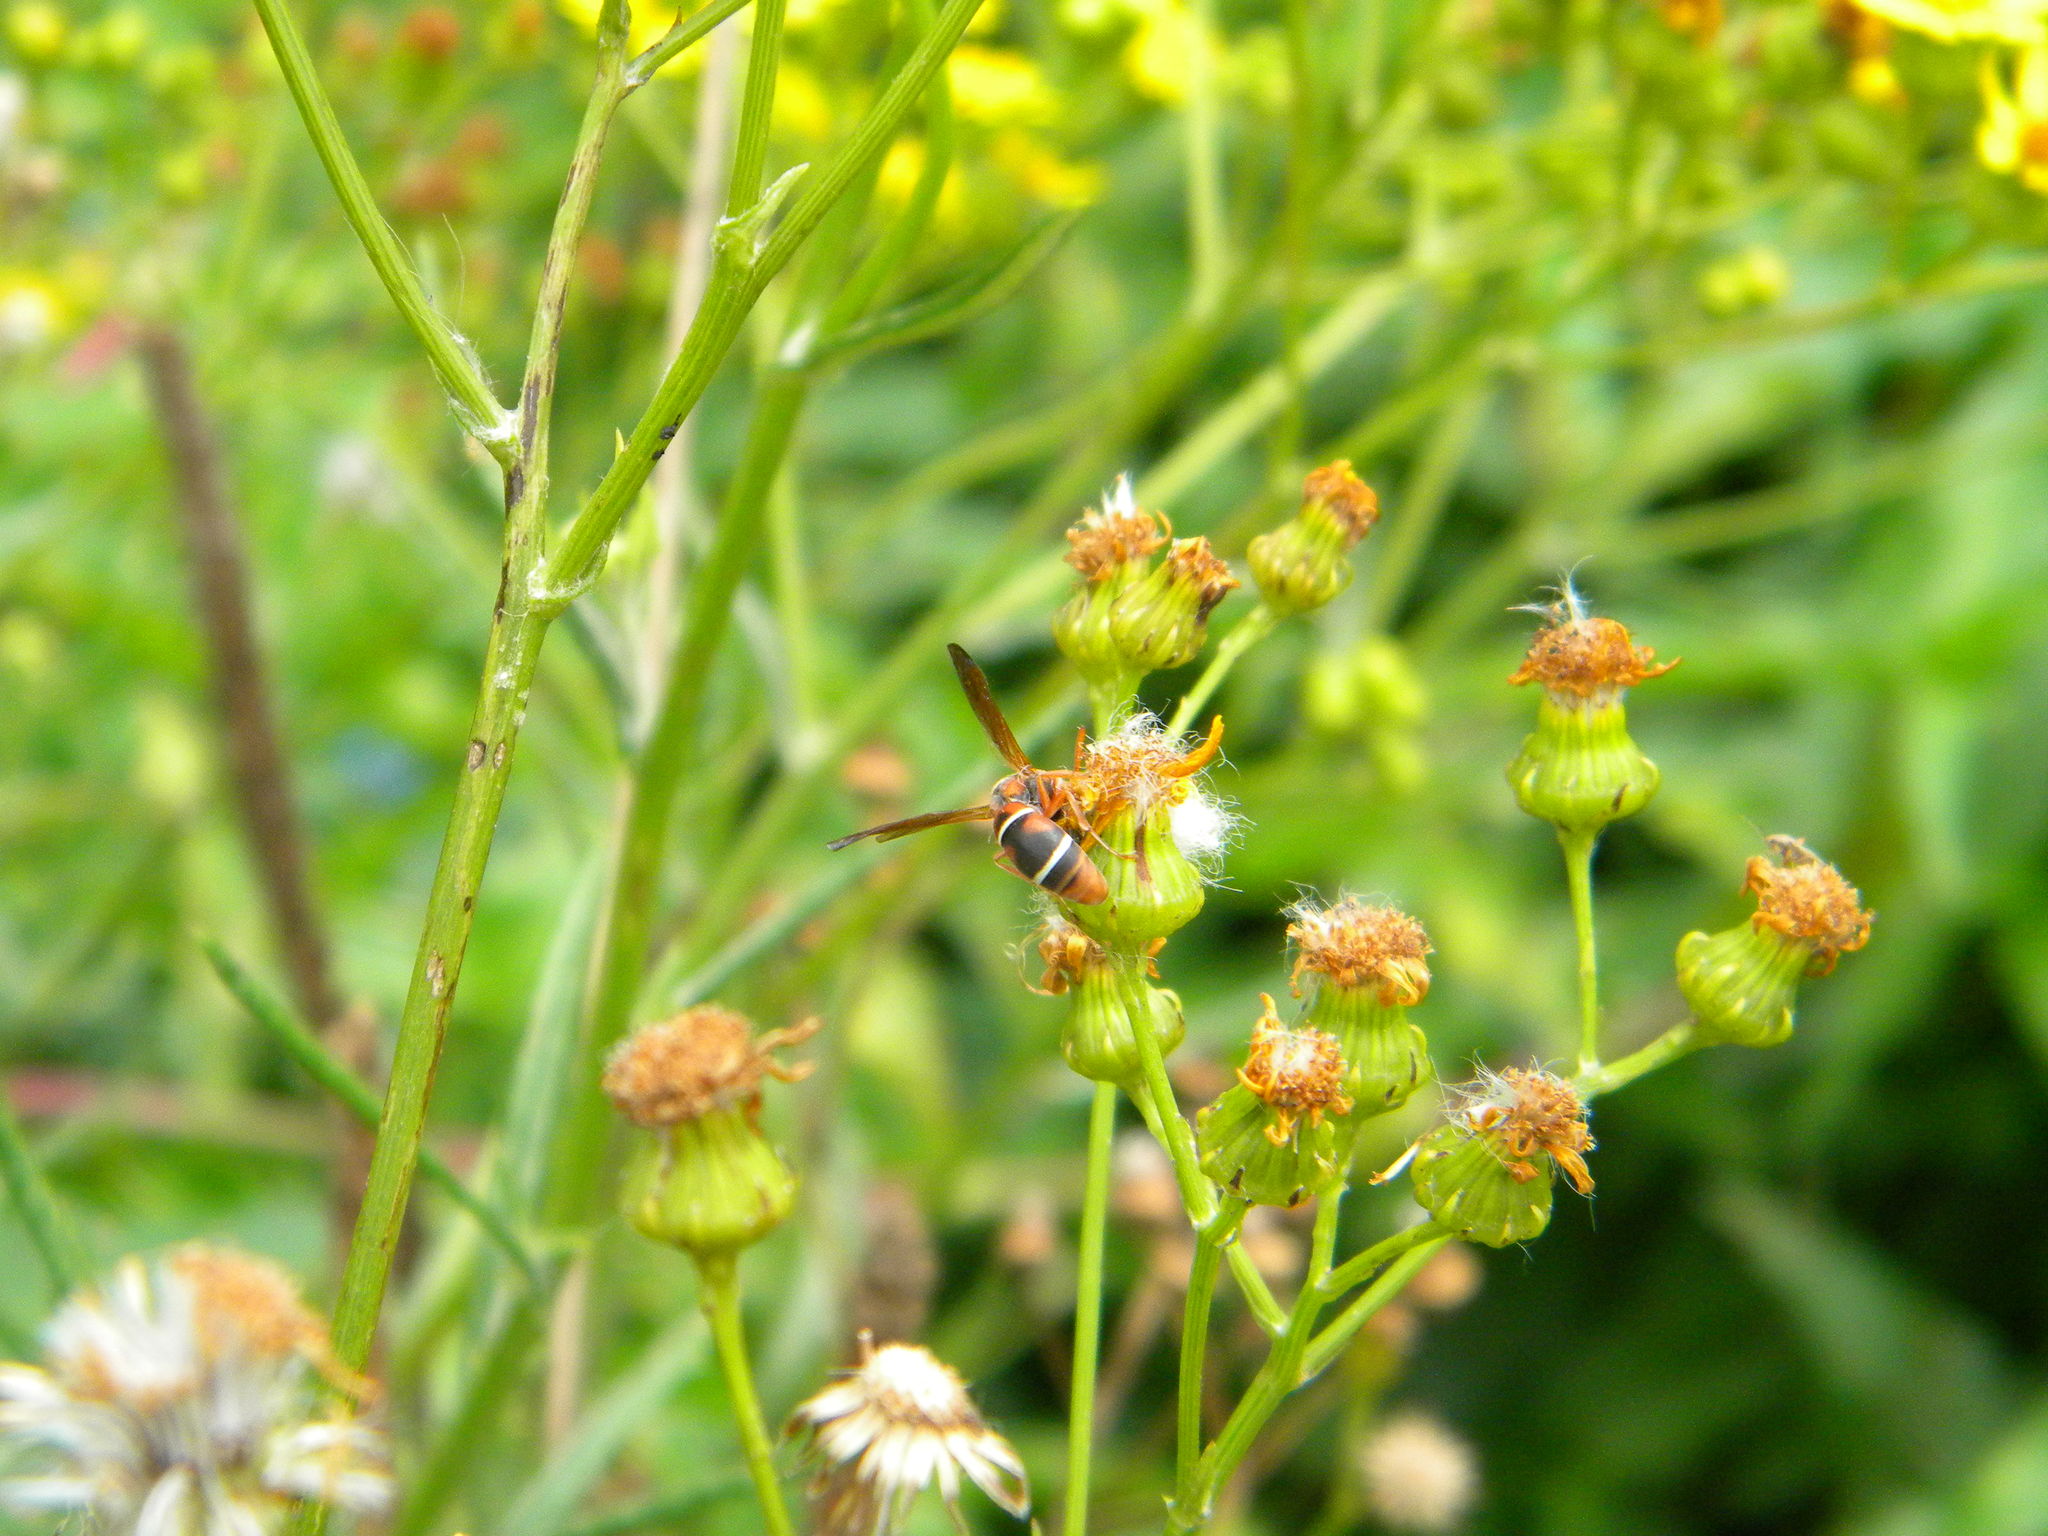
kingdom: Animalia
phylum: Arthropoda
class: Insecta
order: Hymenoptera
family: Eumenidae
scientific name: Eumenidae
